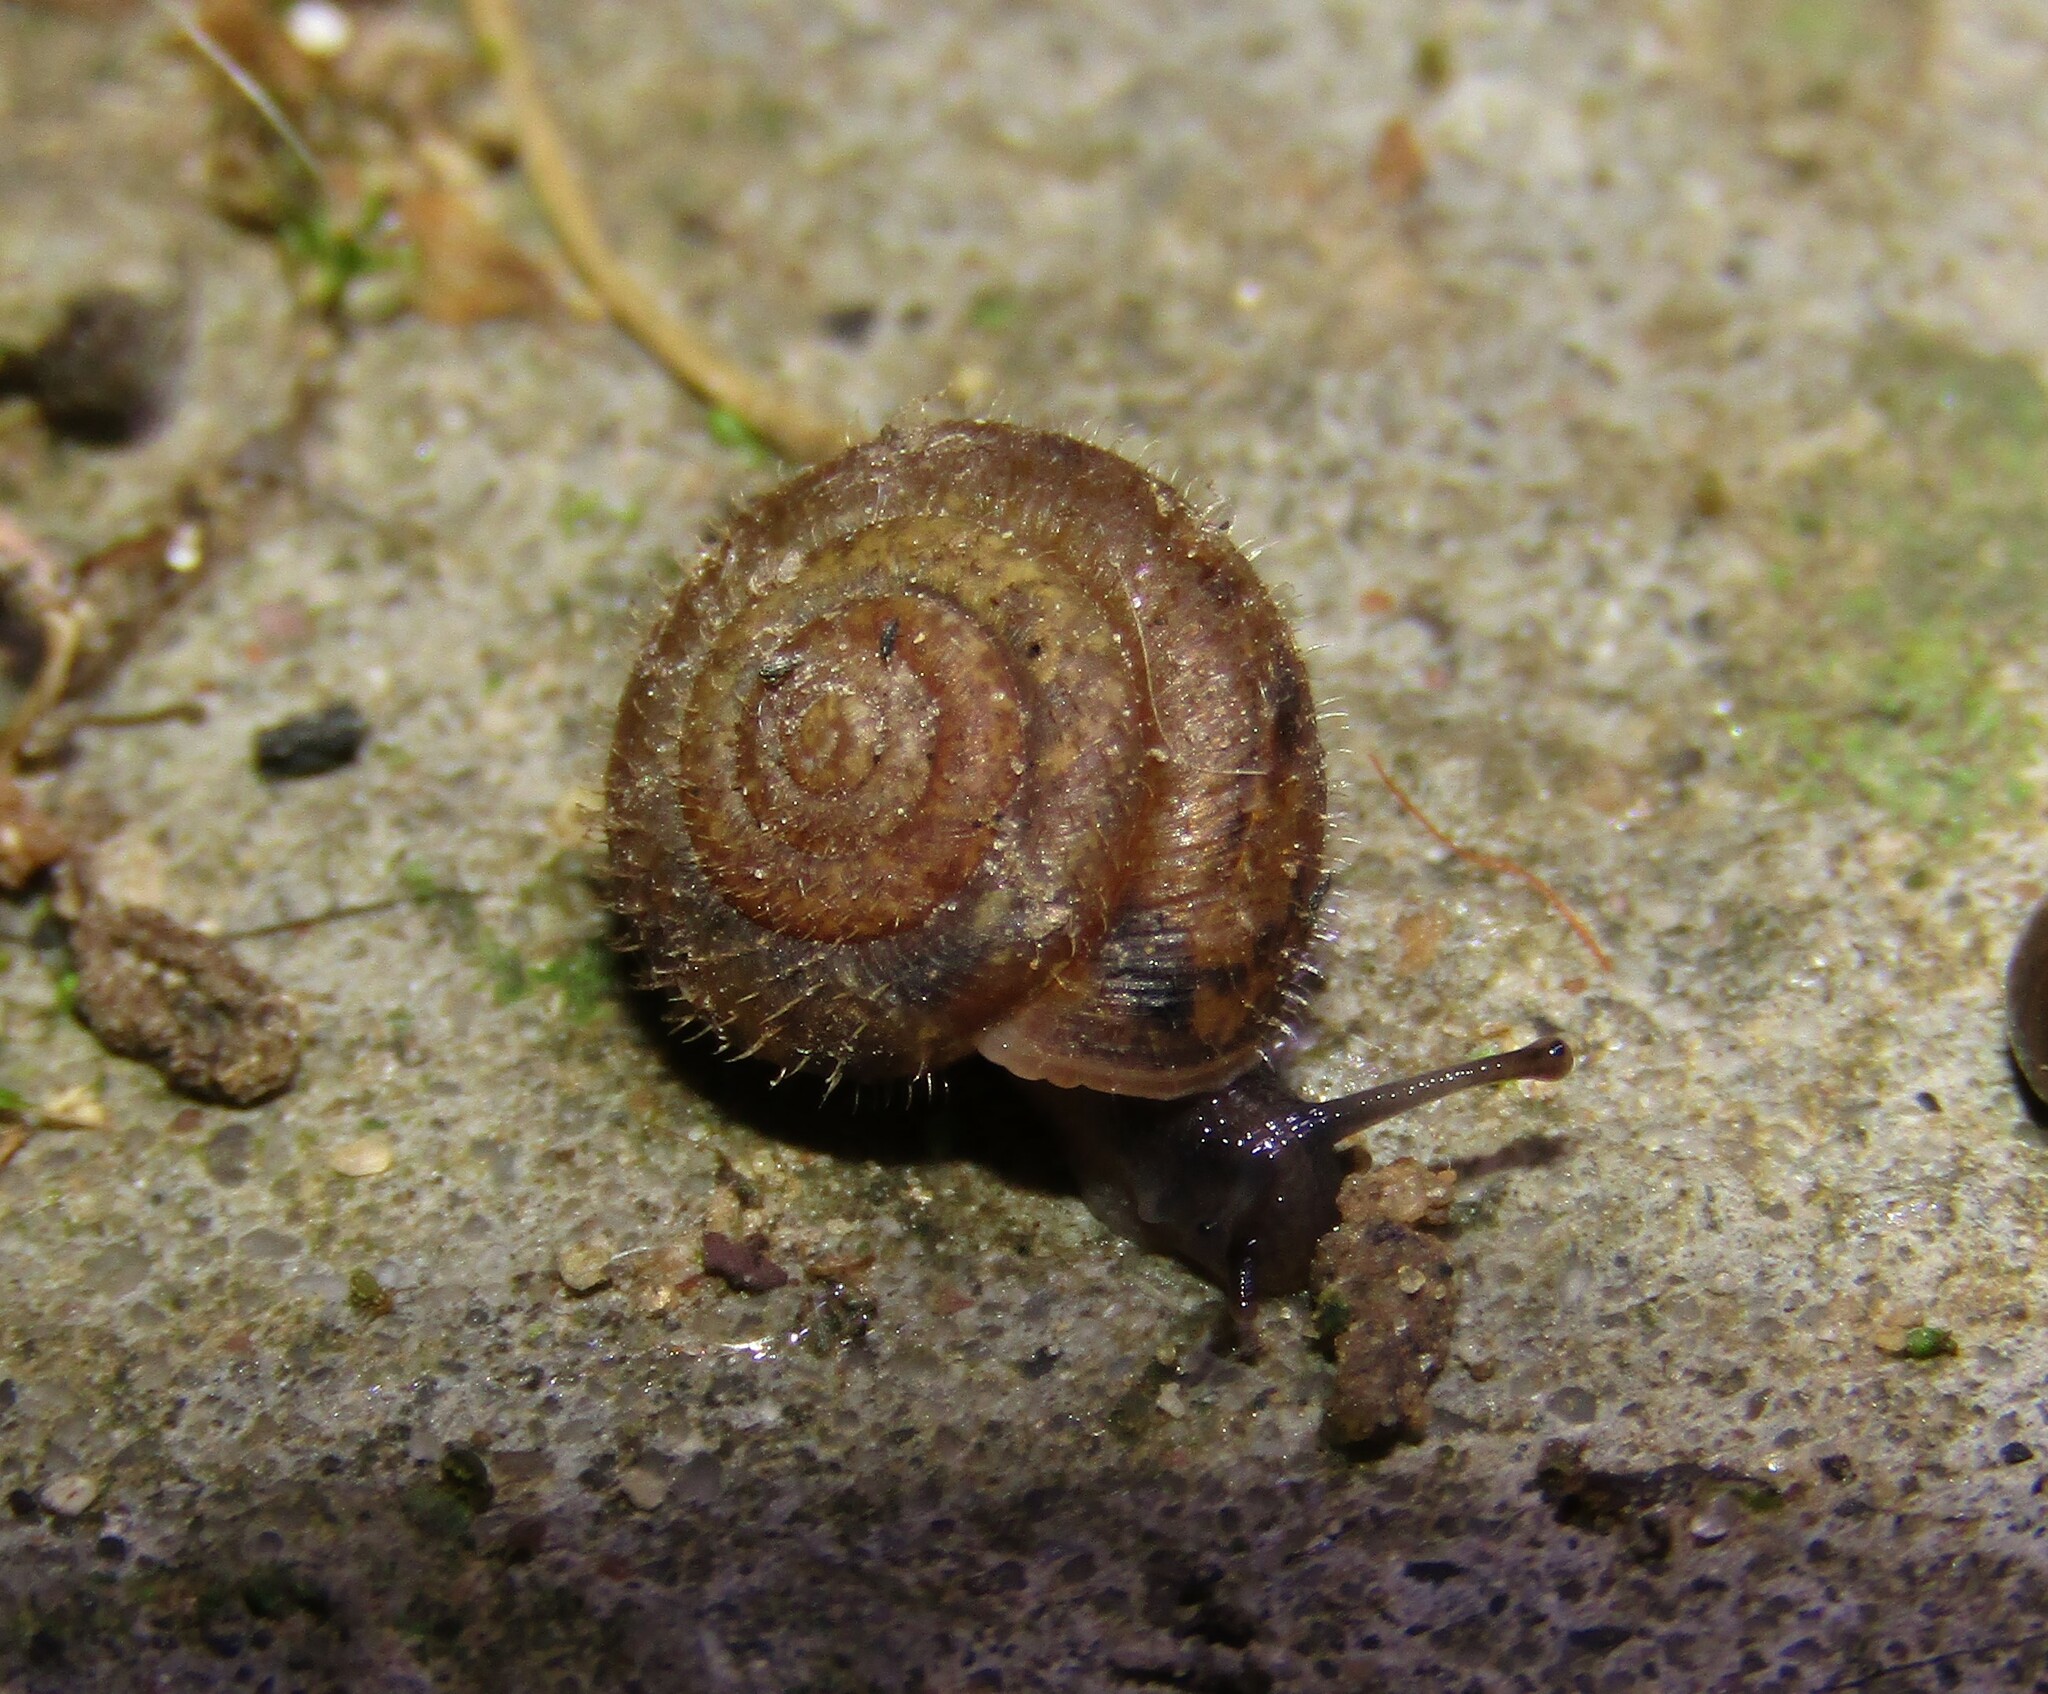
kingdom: Animalia
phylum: Mollusca
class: Gastropoda
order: Stylommatophora
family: Hygromiidae
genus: Trochulus
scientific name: Trochulus hispidus
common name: Hairy snail
